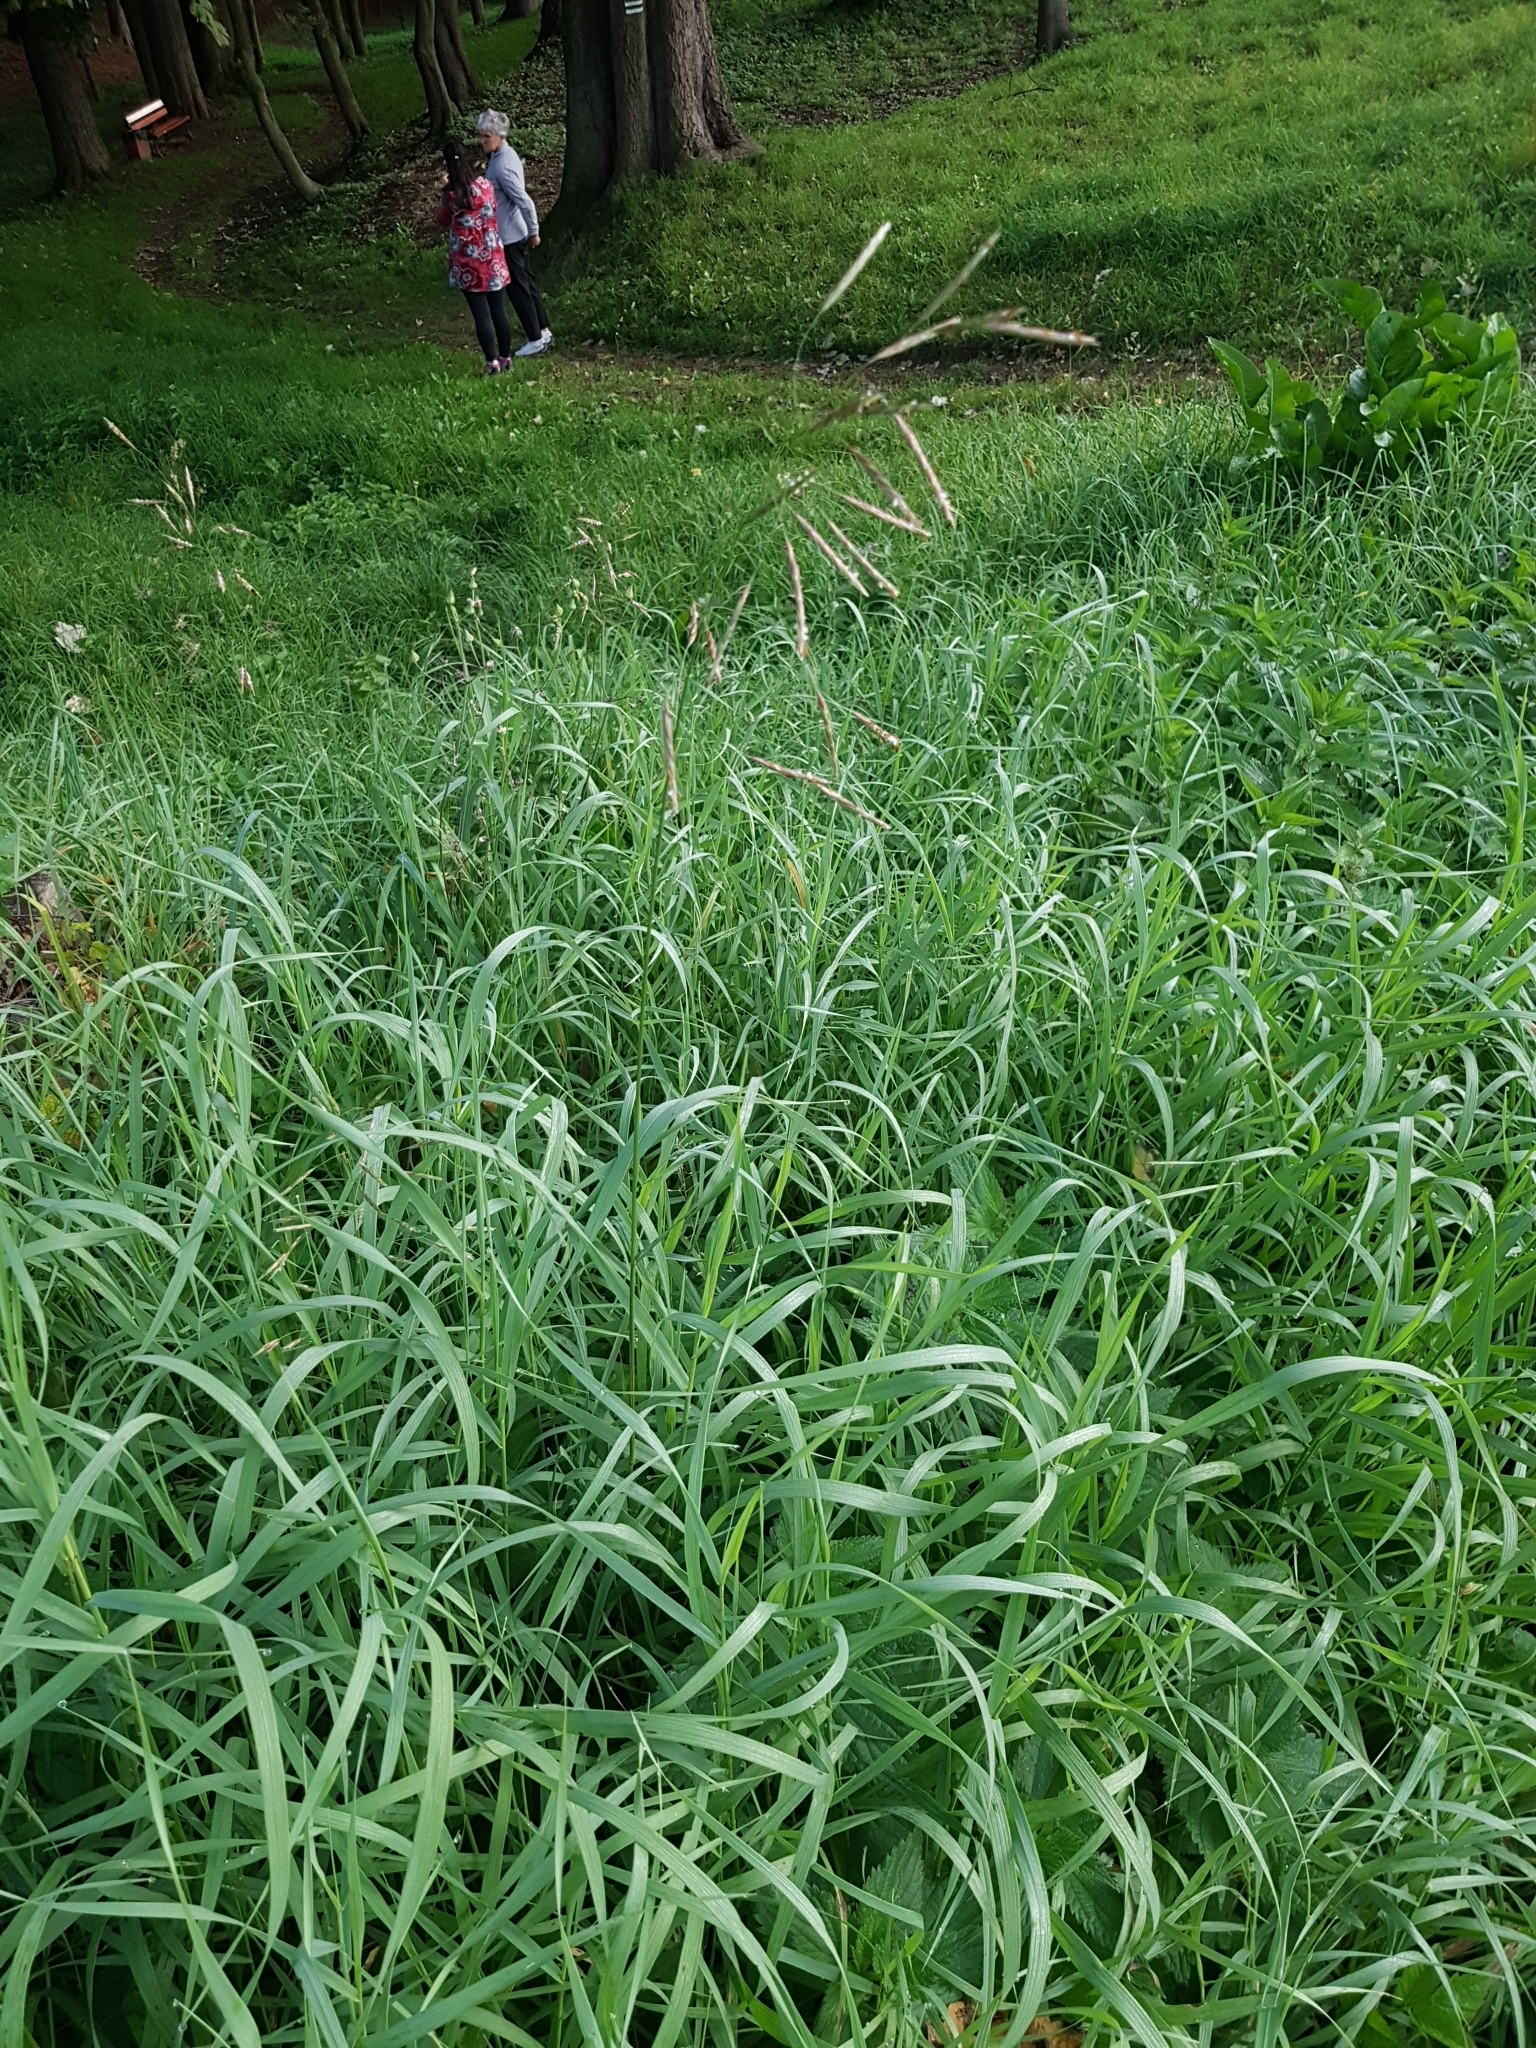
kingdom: Plantae
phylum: Tracheophyta
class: Liliopsida
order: Poales
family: Poaceae
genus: Bromus
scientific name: Bromus inermis
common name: Smooth brome
